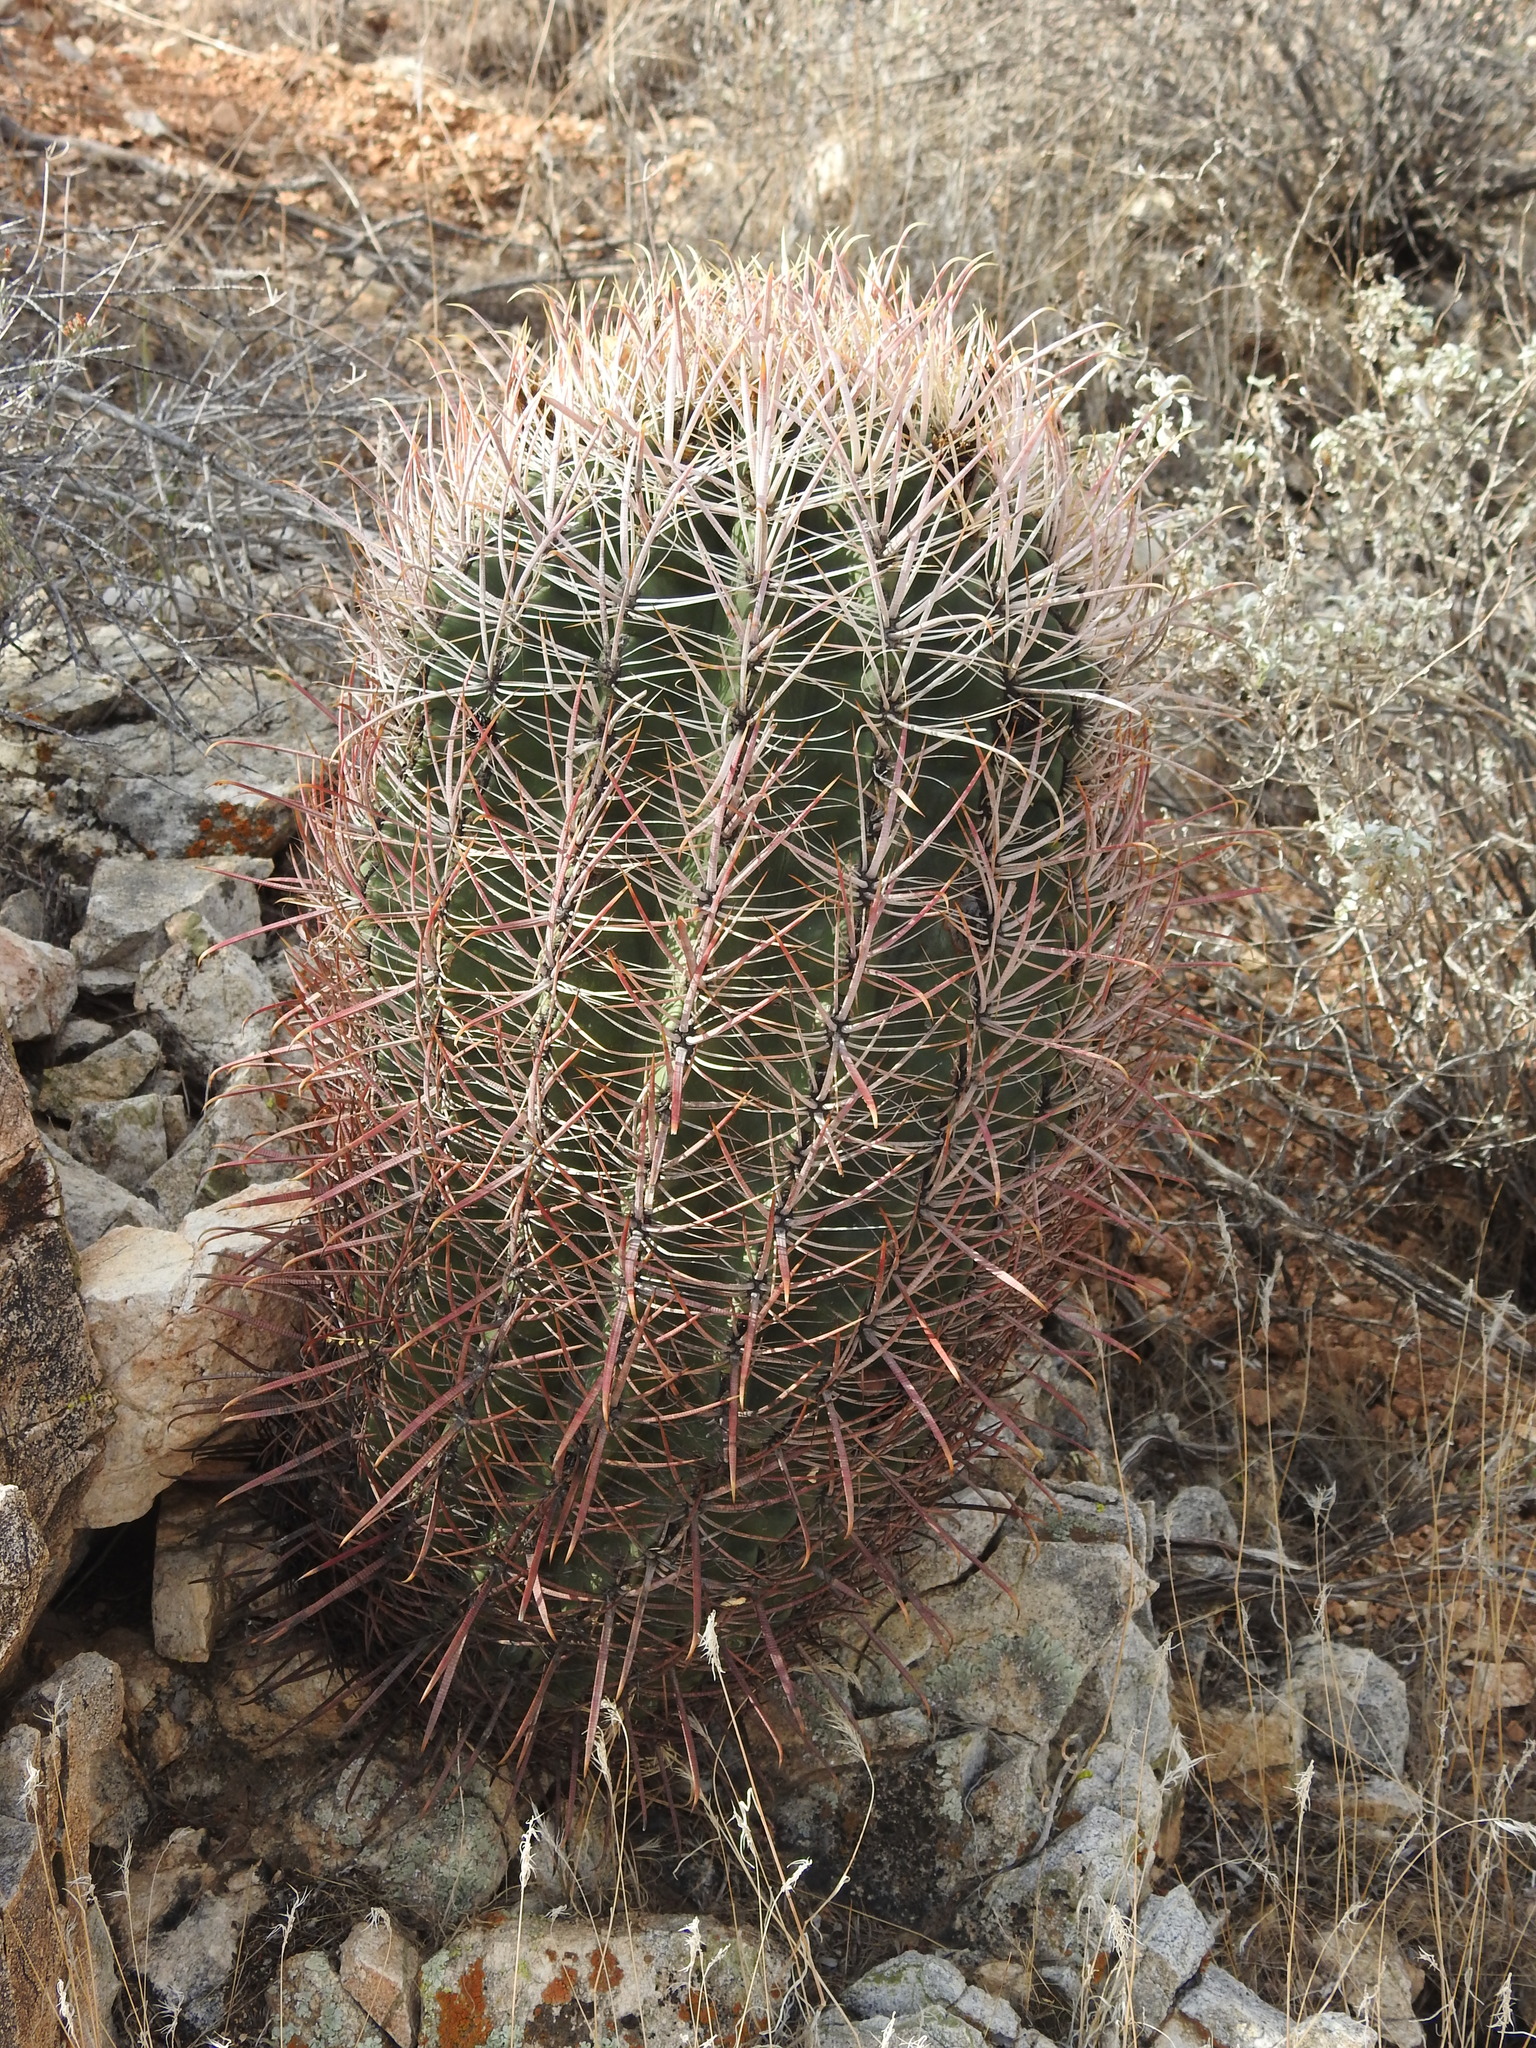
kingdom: Plantae
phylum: Tracheophyta
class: Magnoliopsida
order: Caryophyllales
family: Cactaceae
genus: Ferocactus
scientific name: Ferocactus cylindraceus
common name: California barrel cactus
